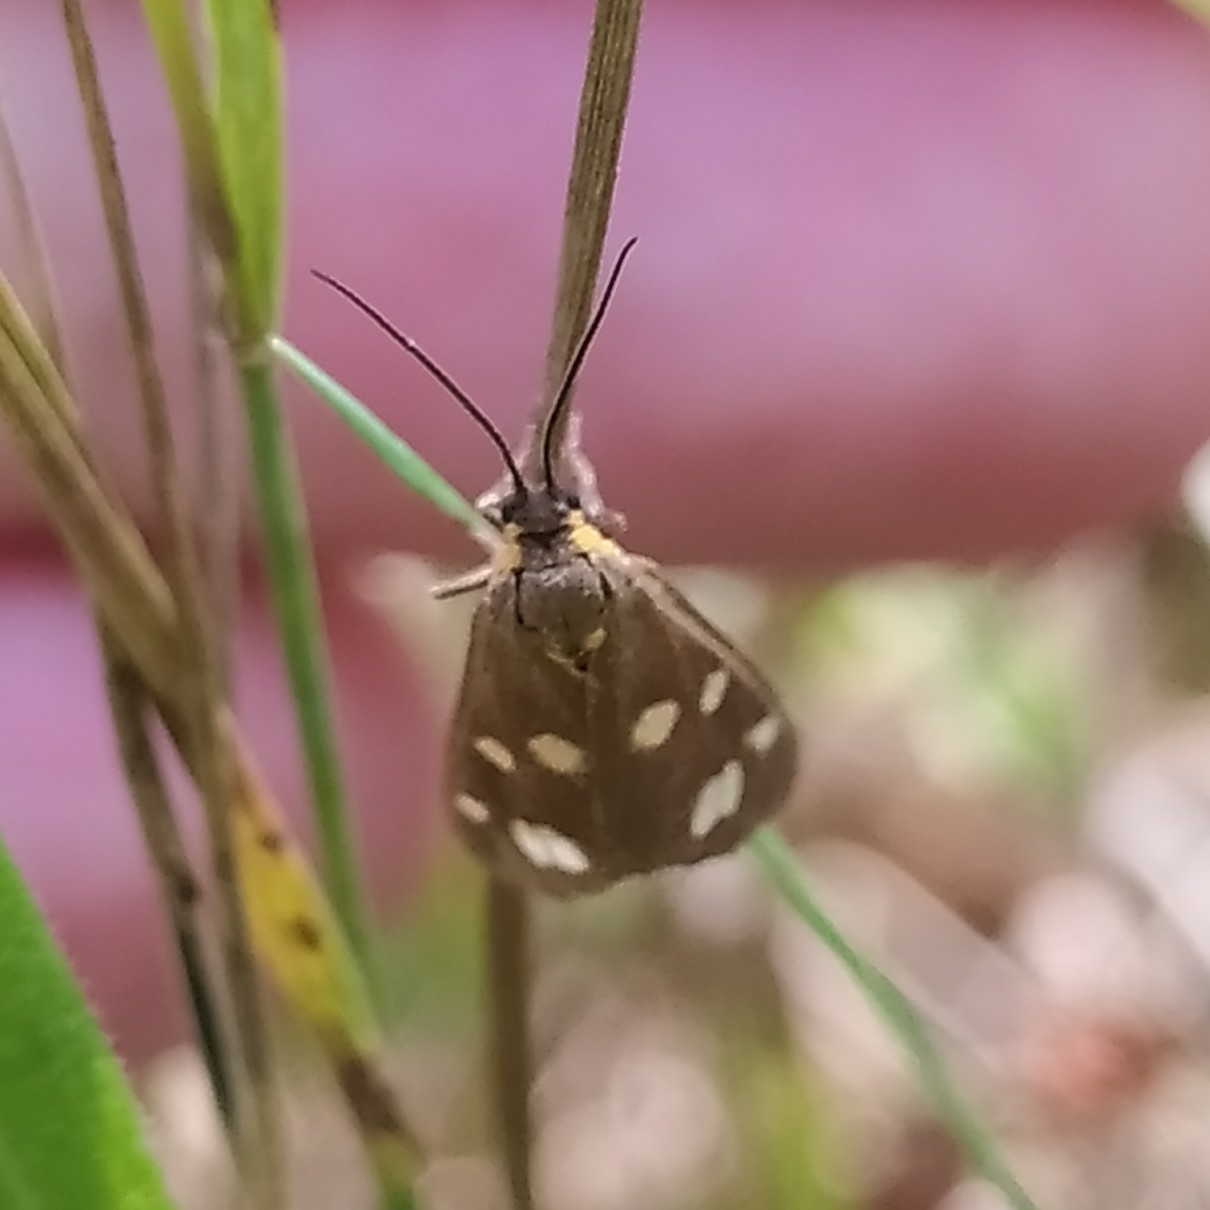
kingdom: Animalia
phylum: Arthropoda
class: Insecta
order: Lepidoptera
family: Erebidae
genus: Dysauxes
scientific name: Dysauxes punctata
